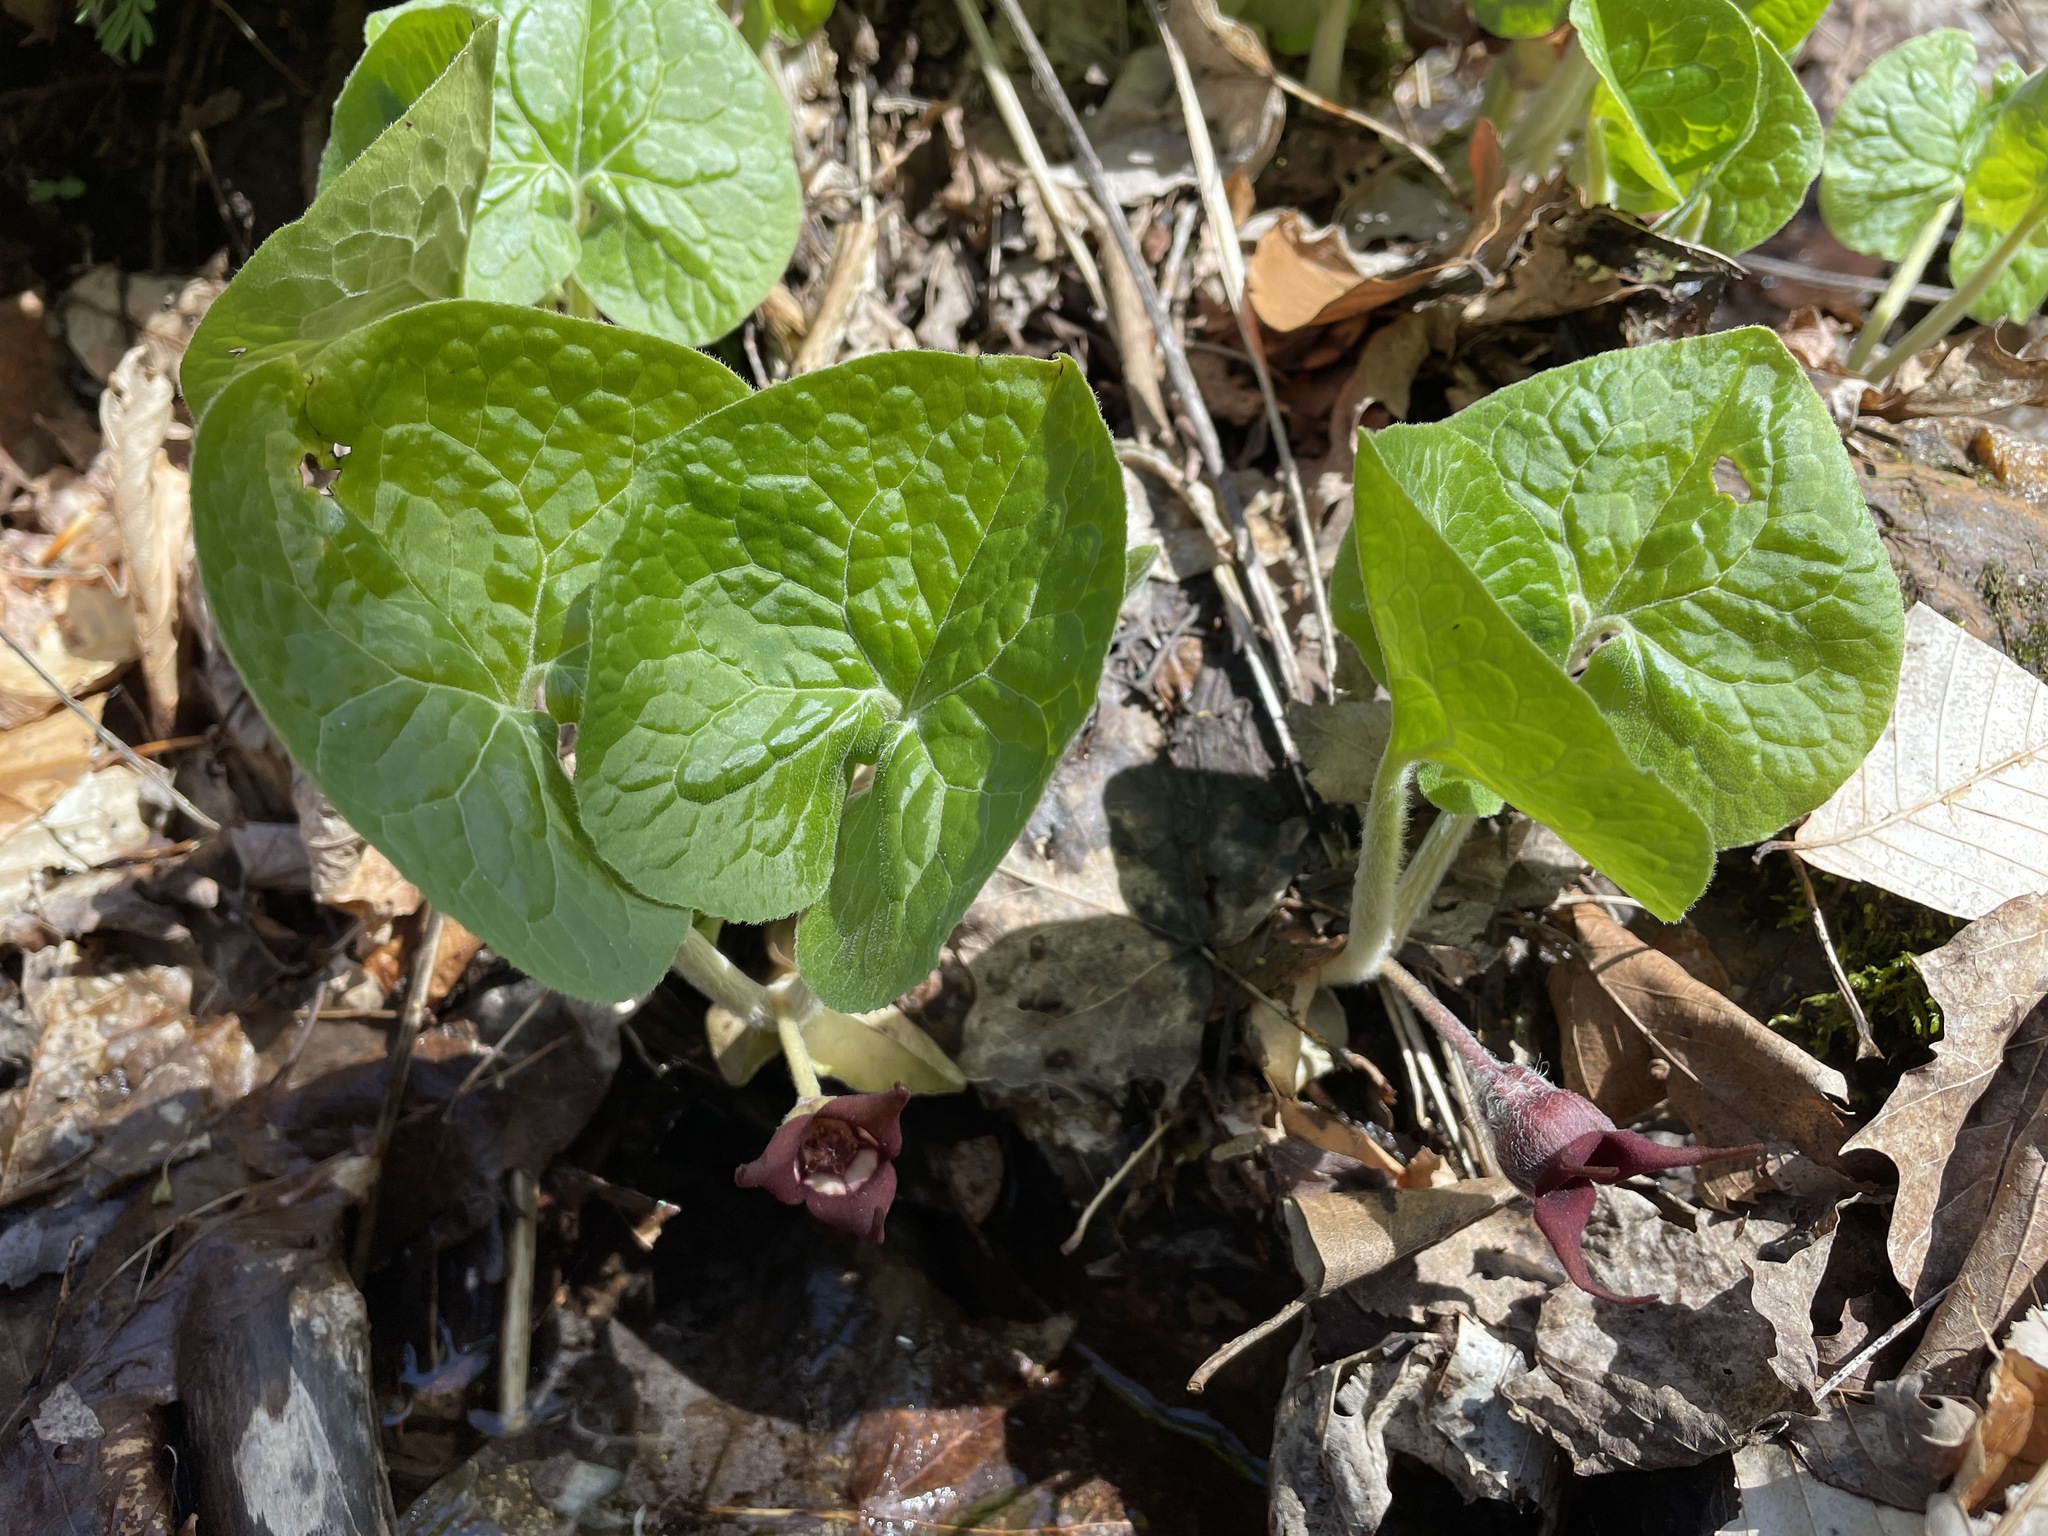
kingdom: Plantae
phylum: Tracheophyta
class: Magnoliopsida
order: Piperales
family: Aristolochiaceae
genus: Asarum
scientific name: Asarum canadense
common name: Wild ginger
